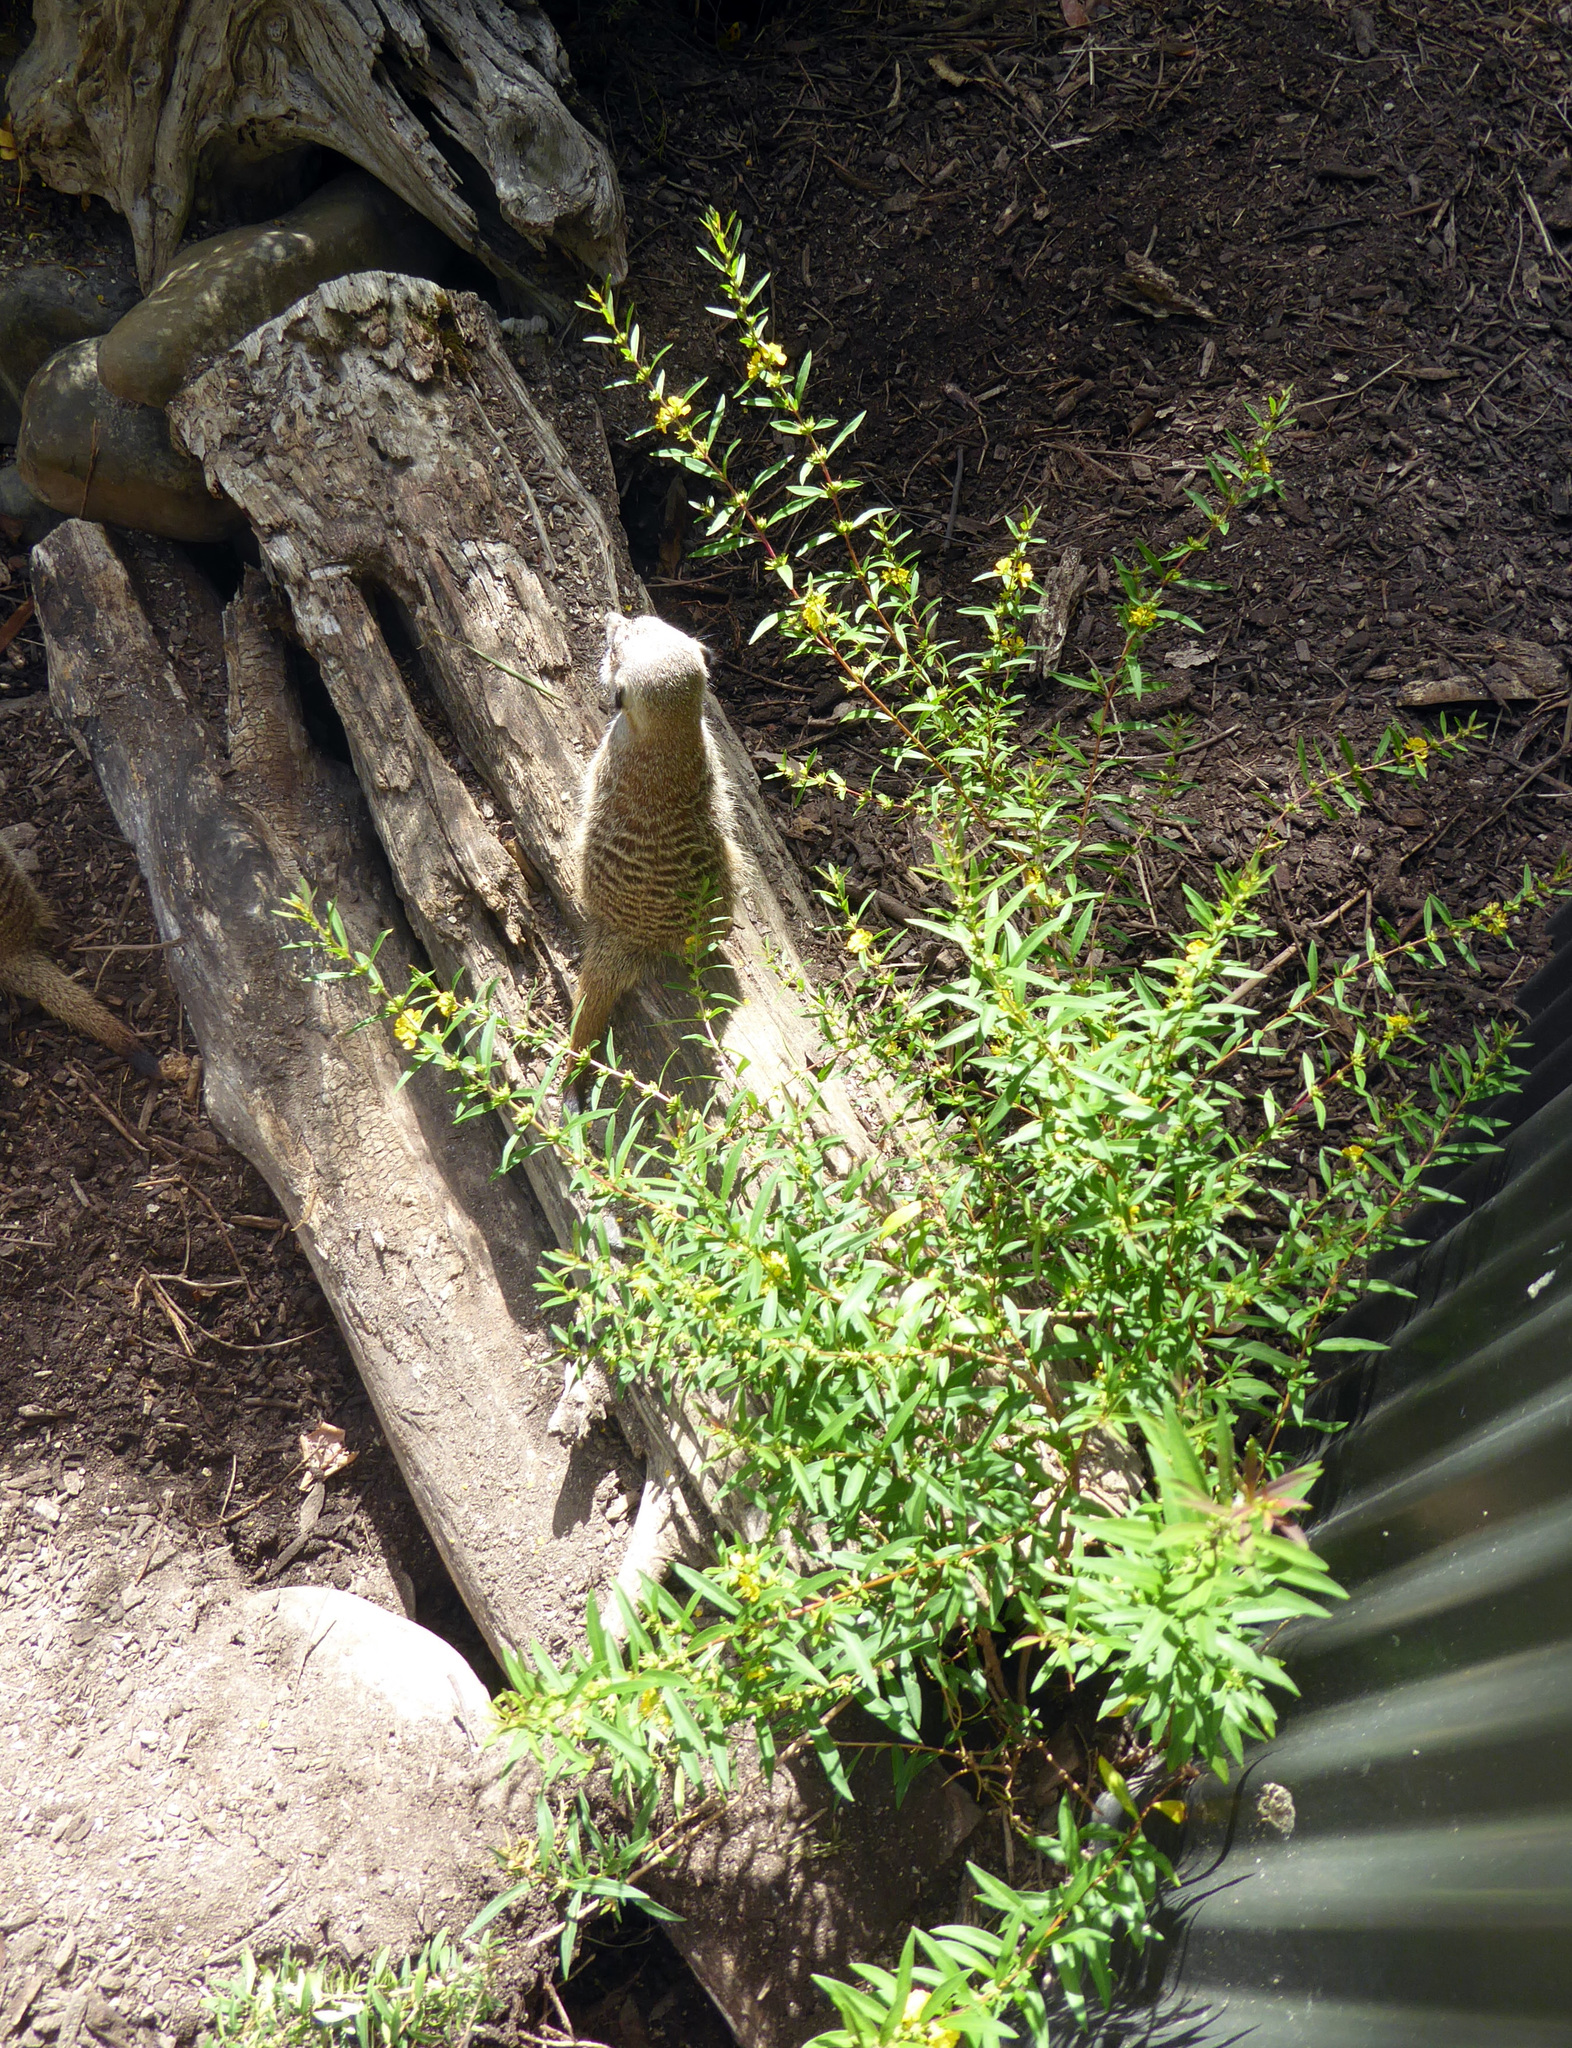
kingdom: Plantae
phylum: Tracheophyta
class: Magnoliopsida
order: Myrtales
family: Lythraceae
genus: Heimia
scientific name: Heimia salicifolia
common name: Willow-leaf heimia
